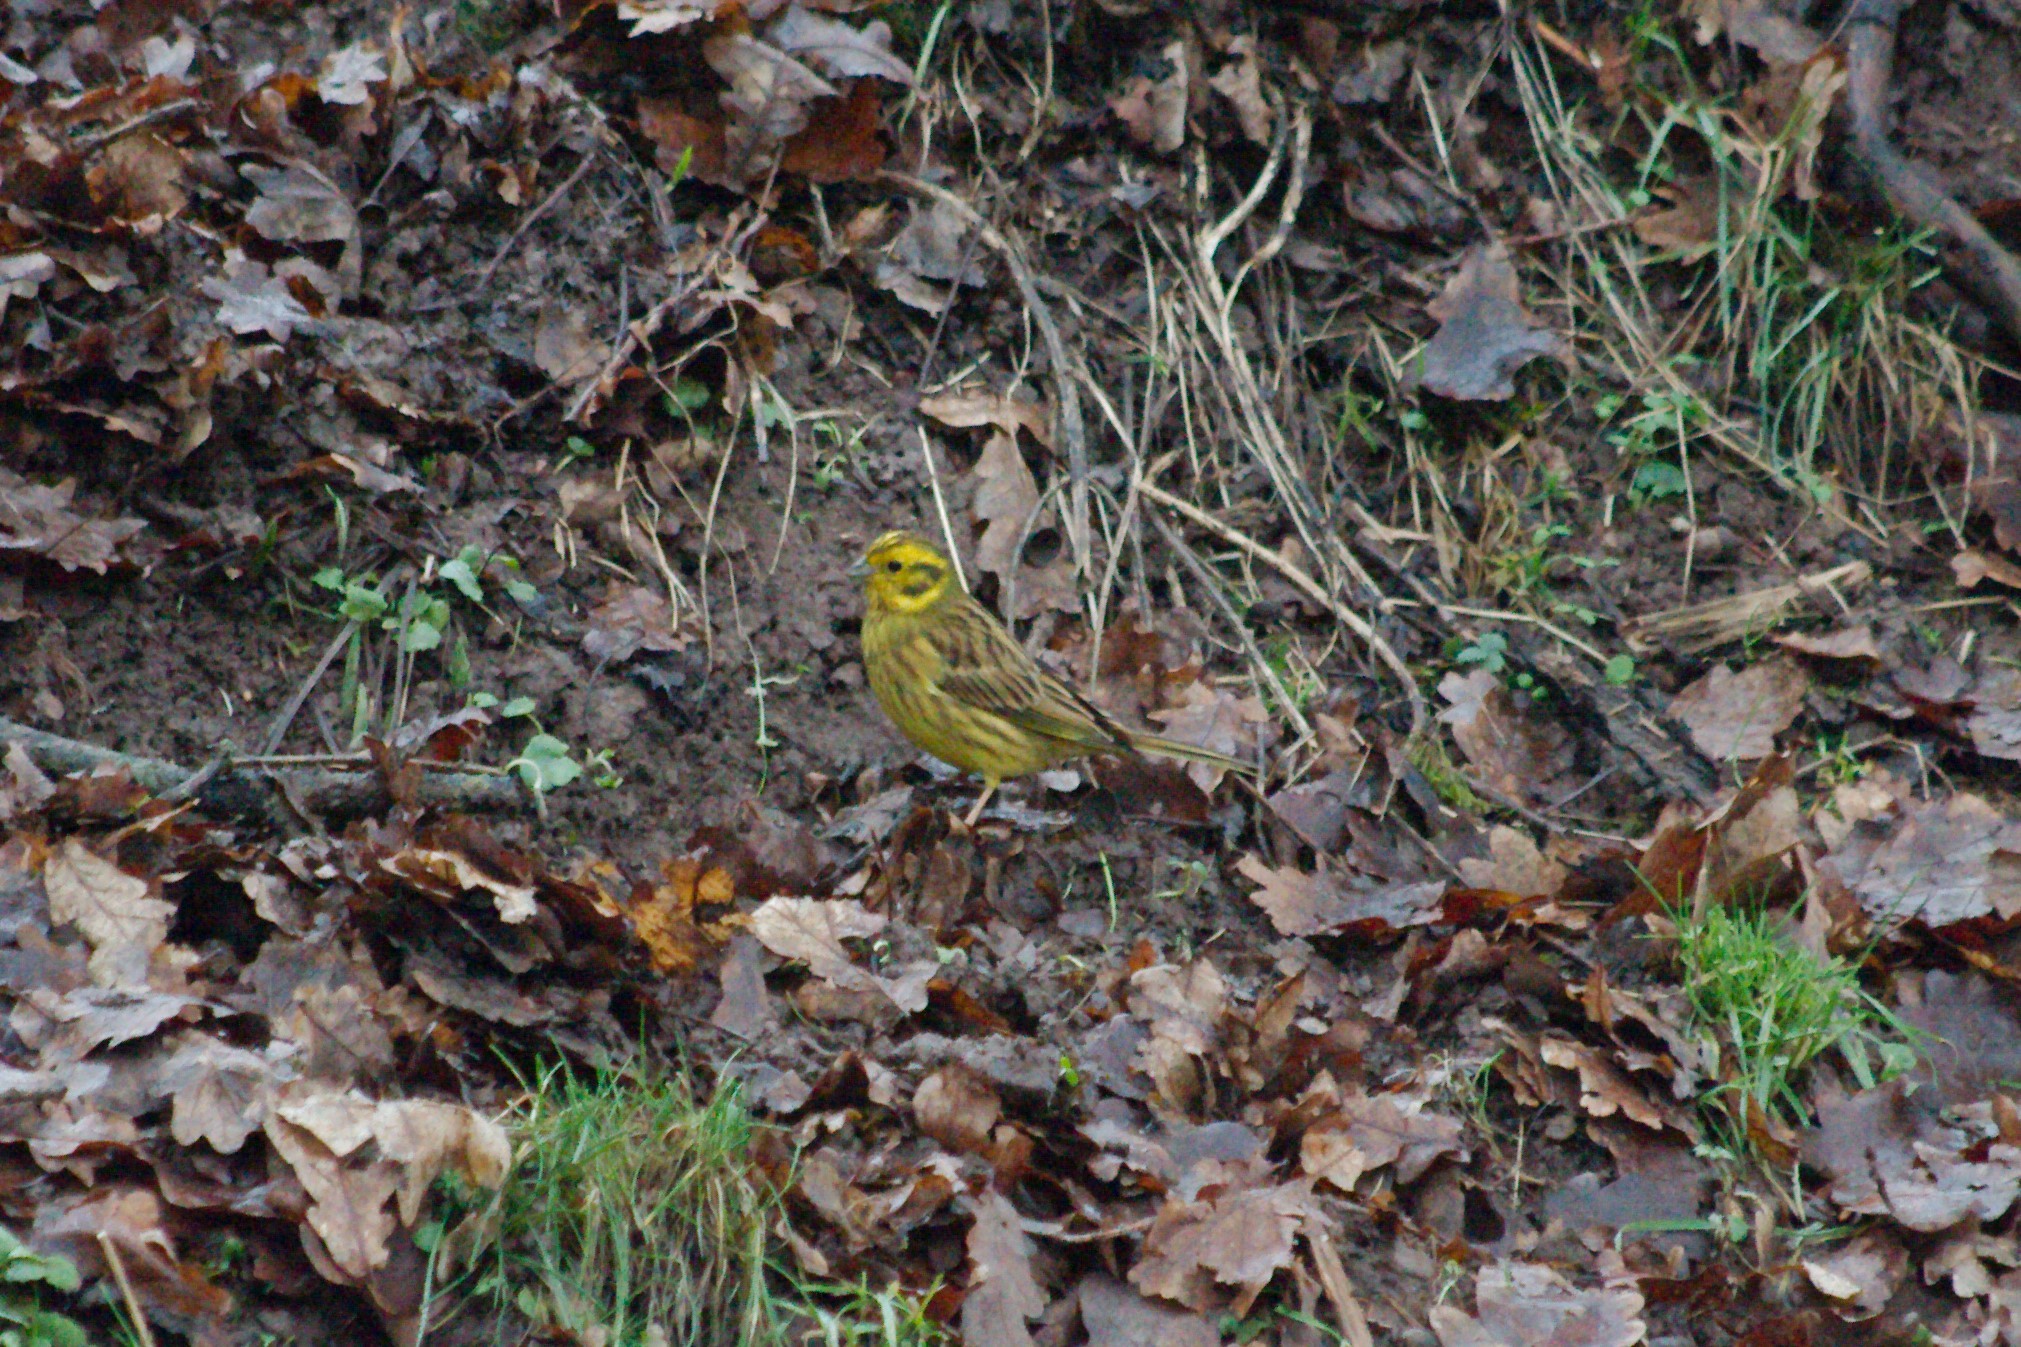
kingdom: Animalia
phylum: Chordata
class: Aves
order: Passeriformes
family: Emberizidae
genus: Emberiza
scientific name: Emberiza citrinella
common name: Yellowhammer
